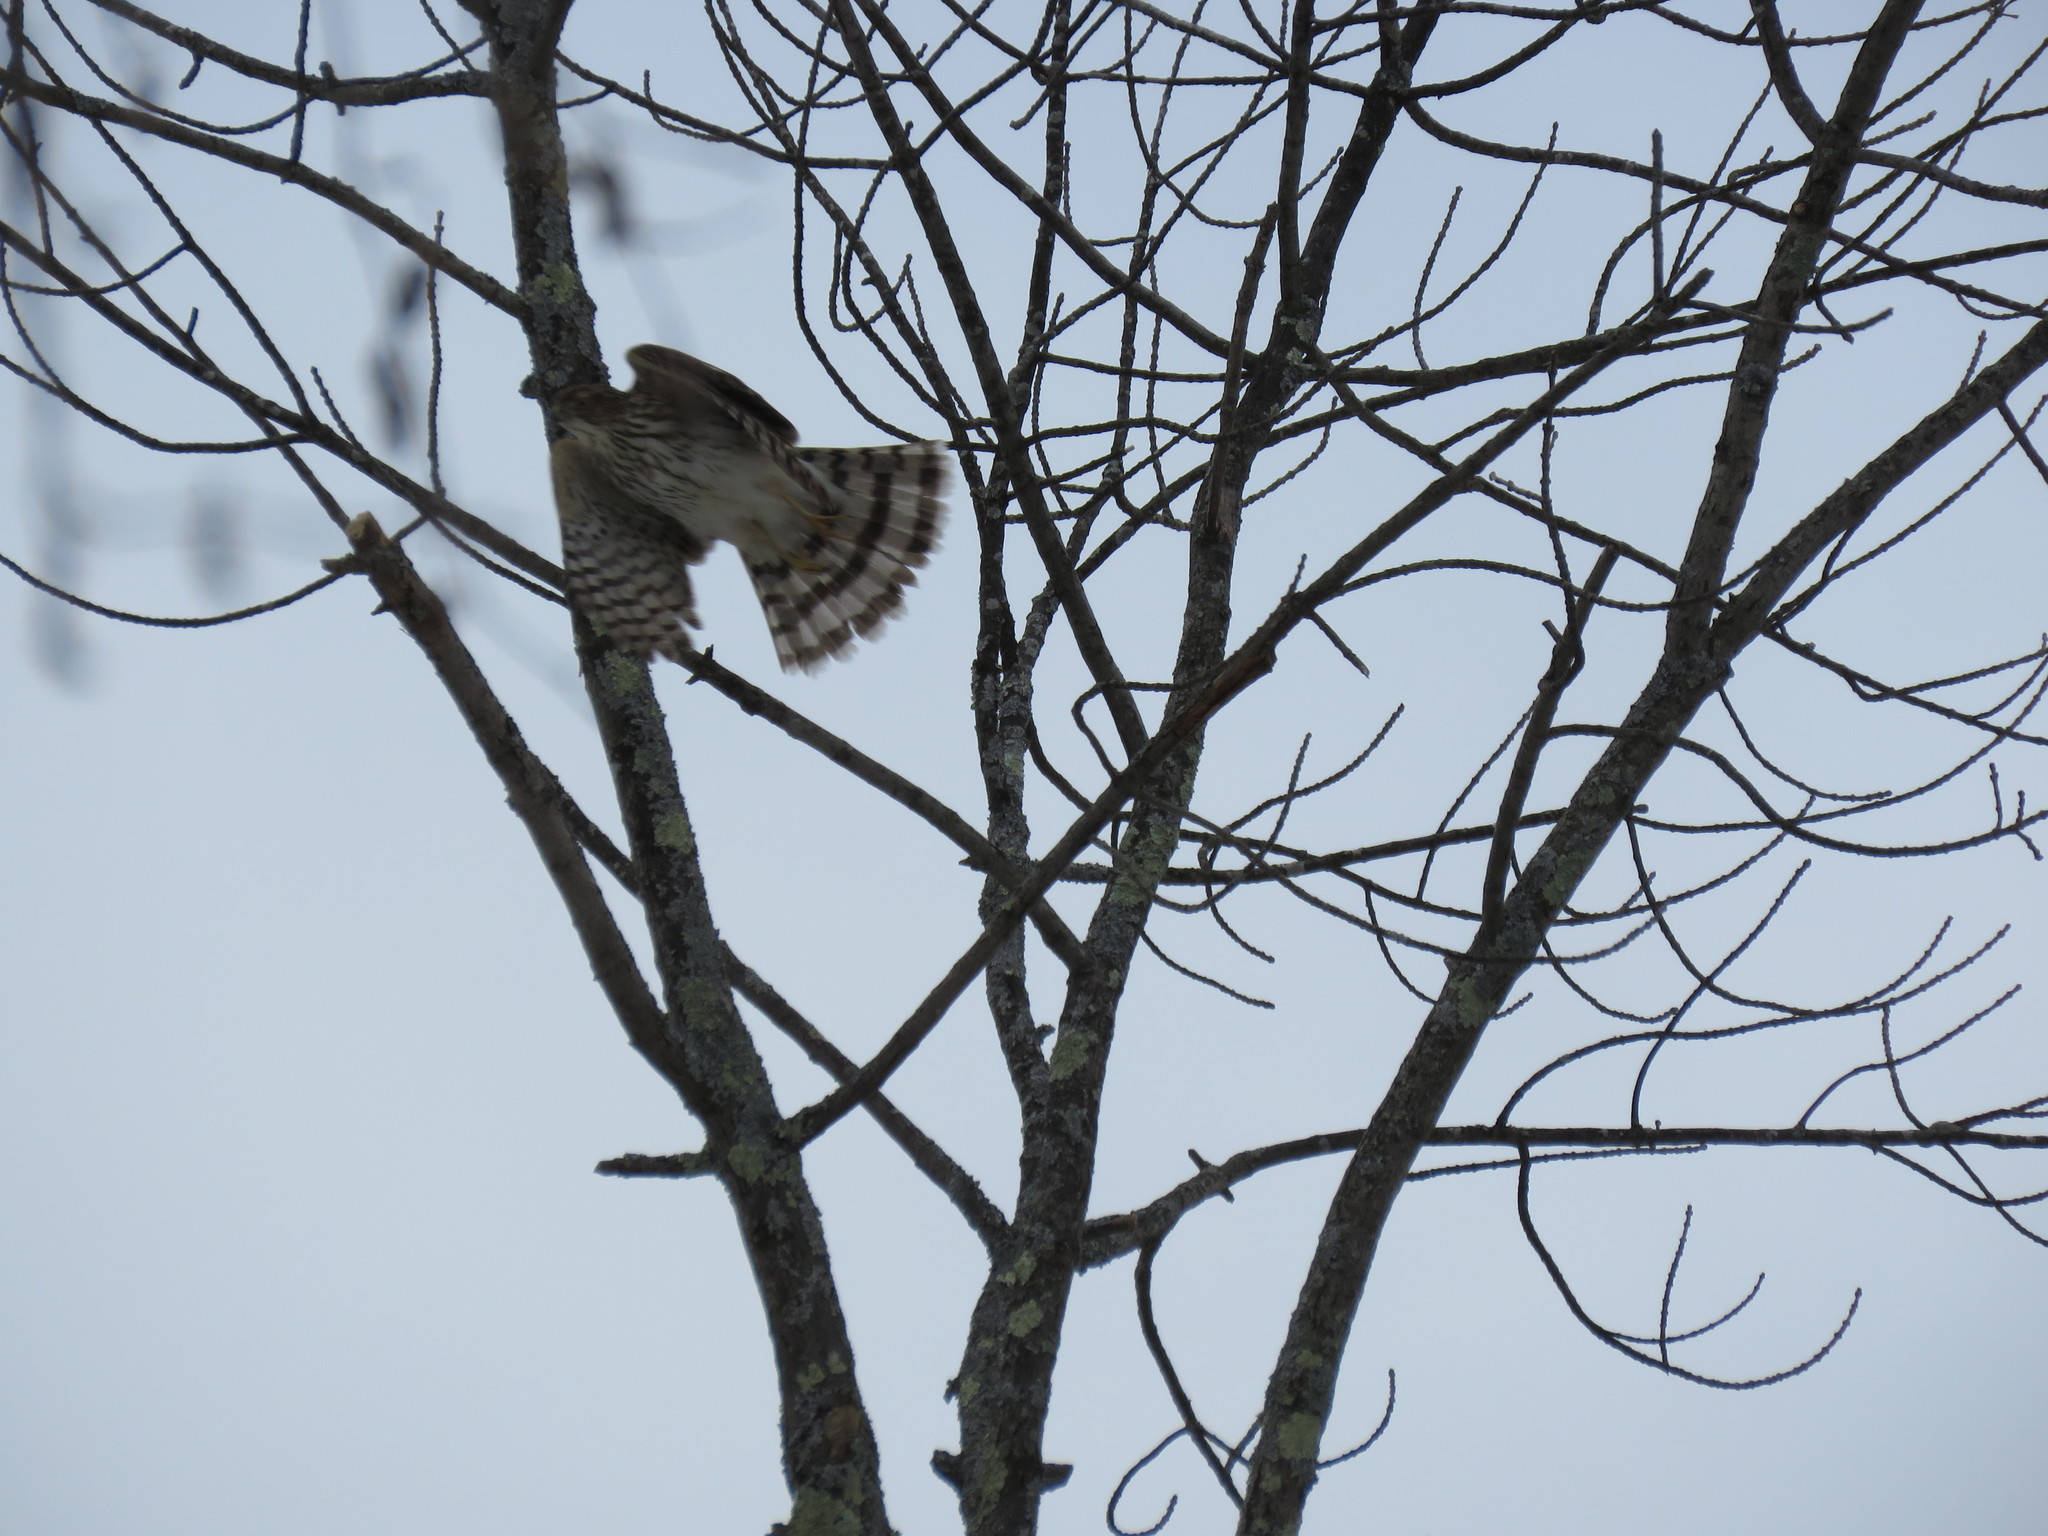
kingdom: Animalia
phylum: Chordata
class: Aves
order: Accipitriformes
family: Accipitridae
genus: Accipiter
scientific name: Accipiter cooperii
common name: Cooper's hawk
